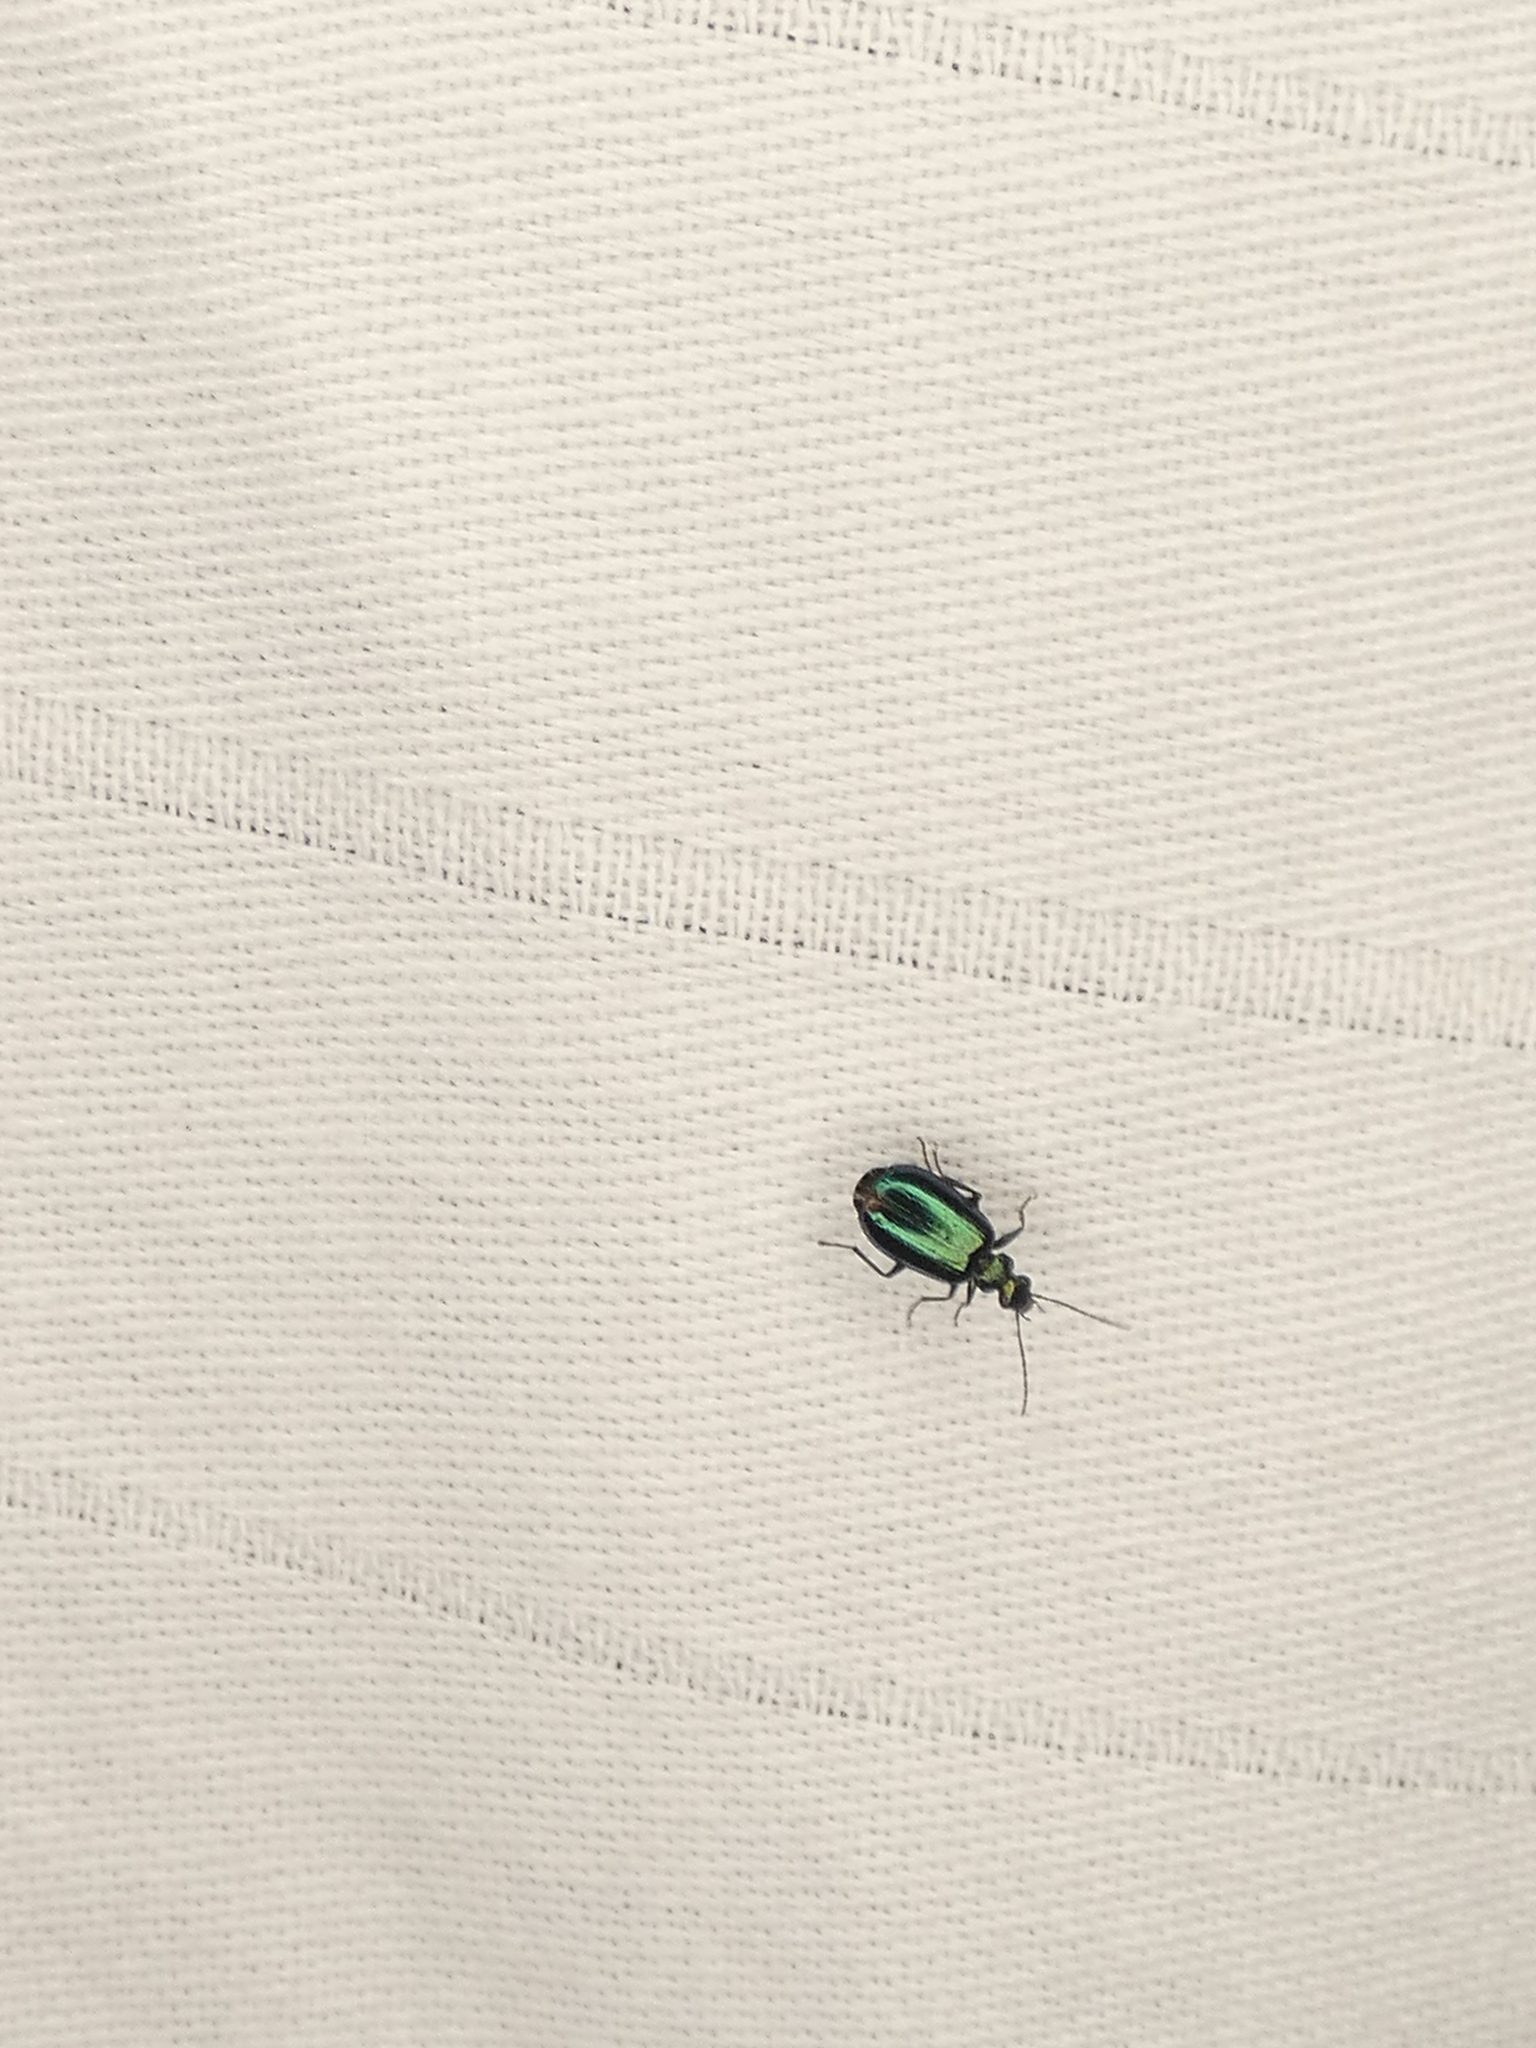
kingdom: Animalia
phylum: Arthropoda
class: Insecta
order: Coleoptera
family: Carabidae
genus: Lebia
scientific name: Lebia viridis
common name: Flower lebia beetle
